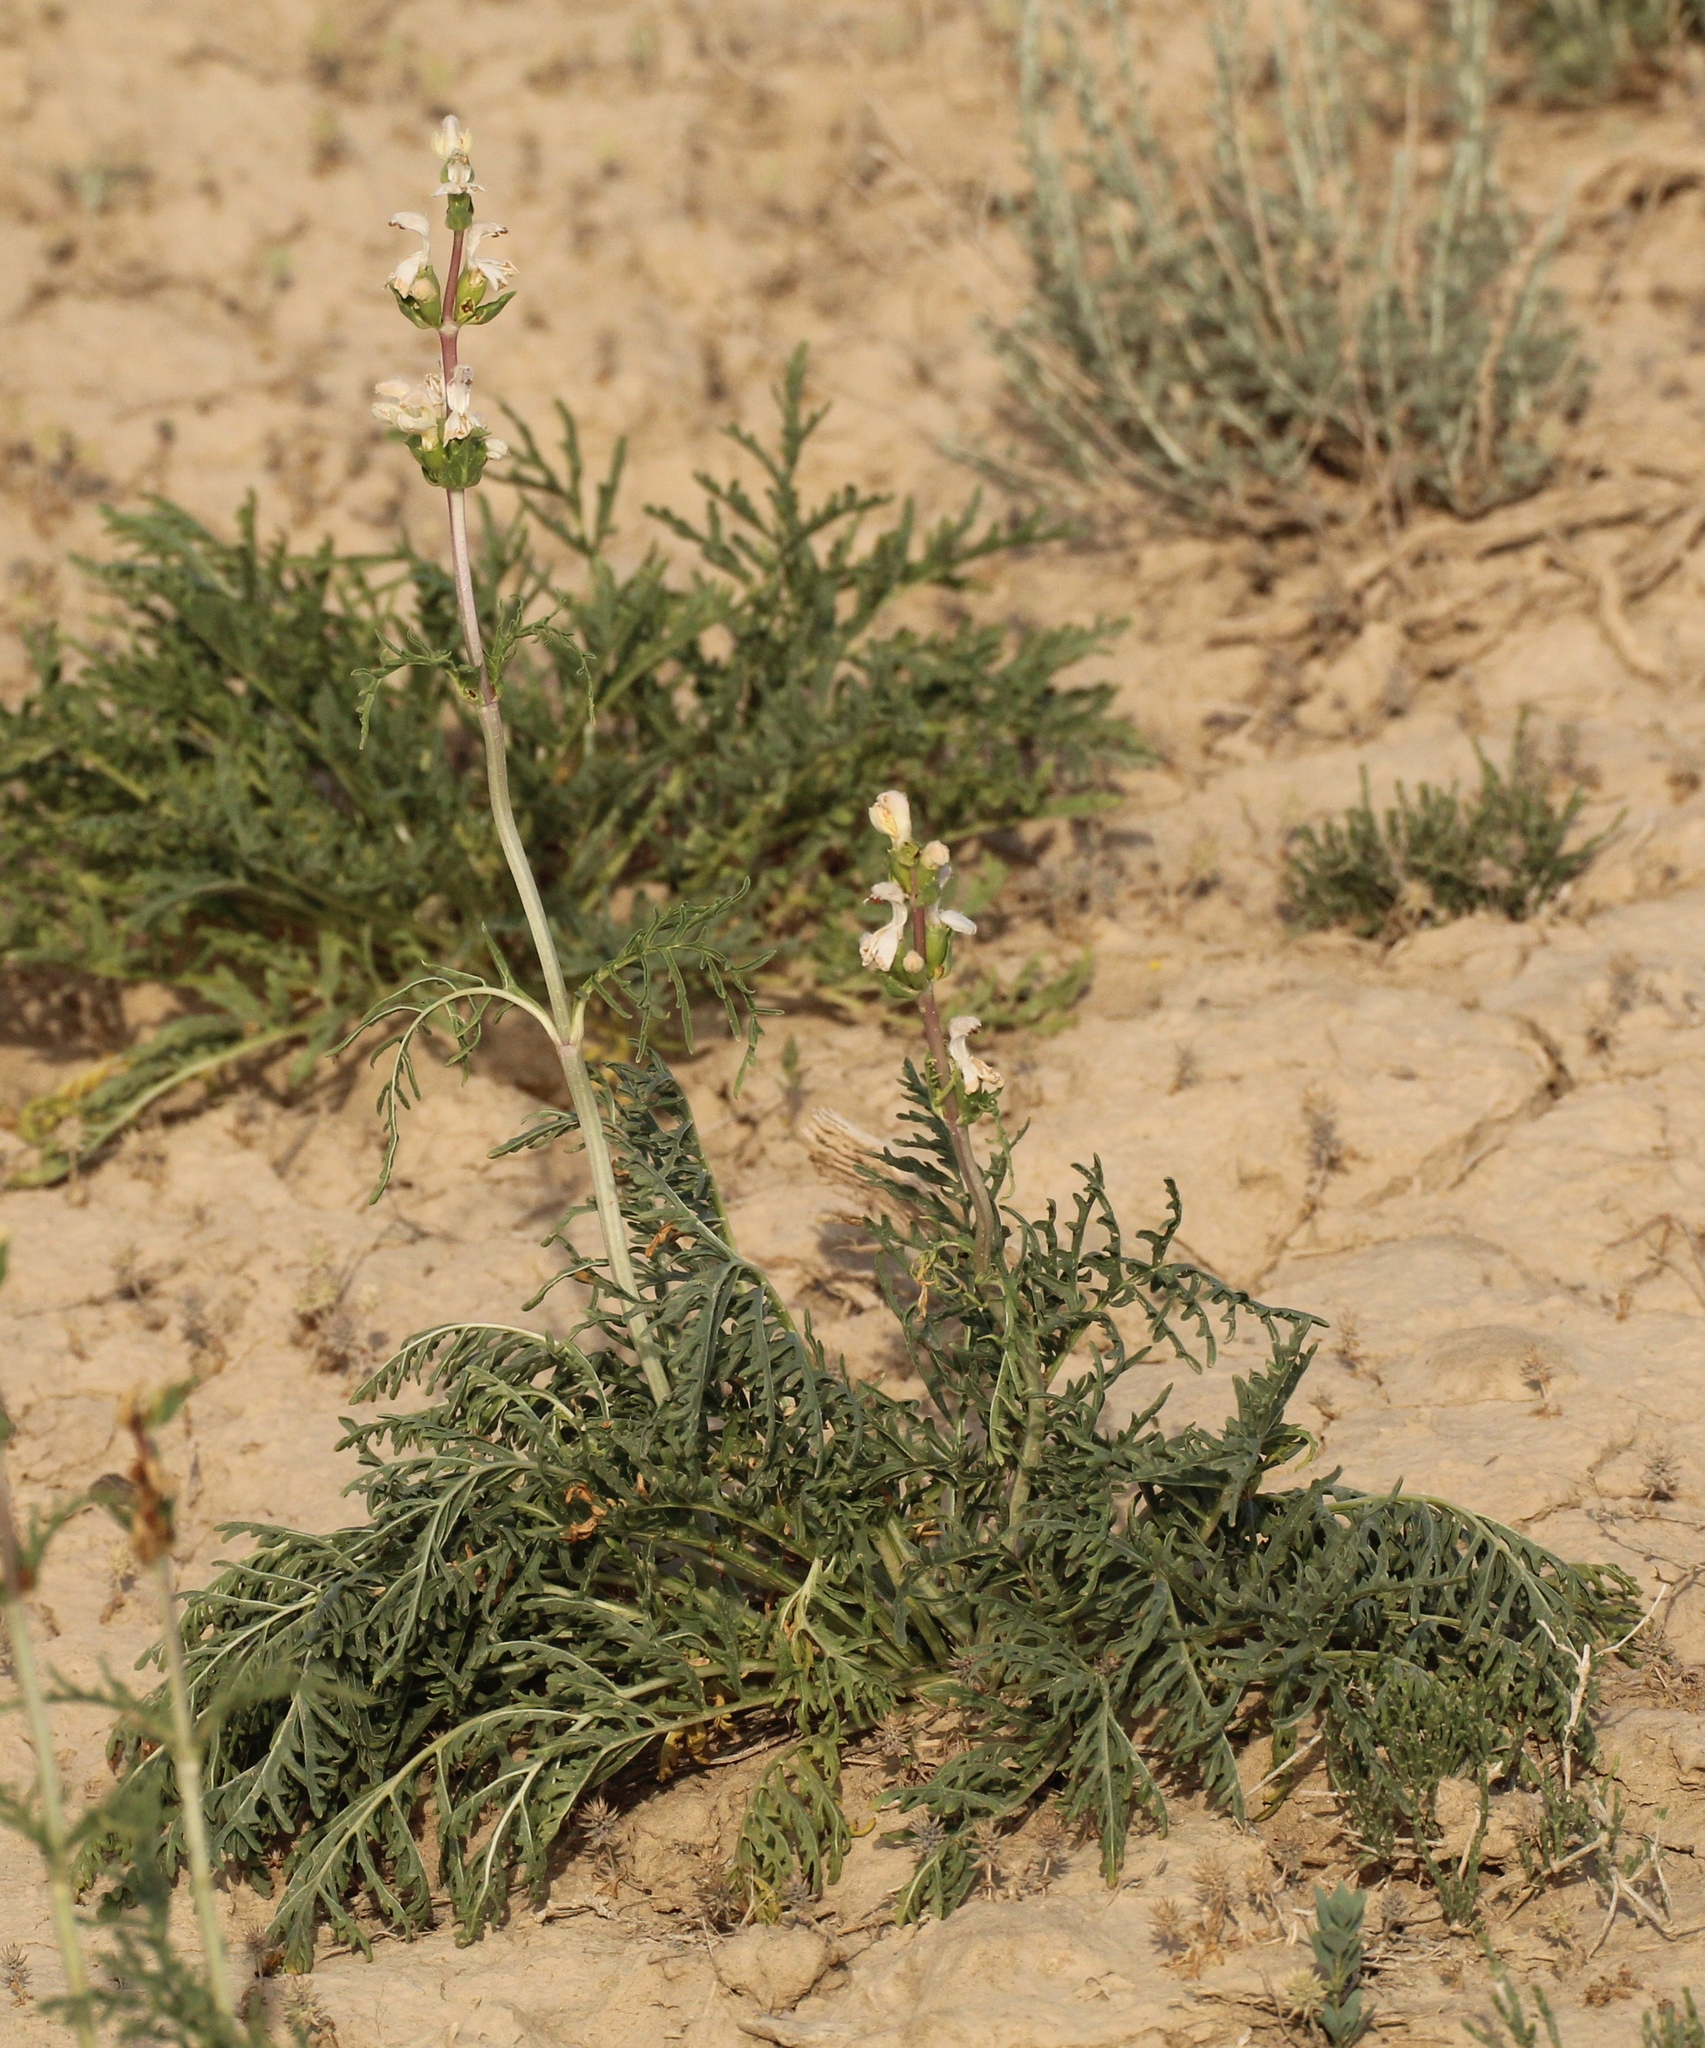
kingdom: Plantae
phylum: Tracheophyta
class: Magnoliopsida
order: Lamiales
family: Lamiaceae
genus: Phlomoides
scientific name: Phlomoides septentrionalis
